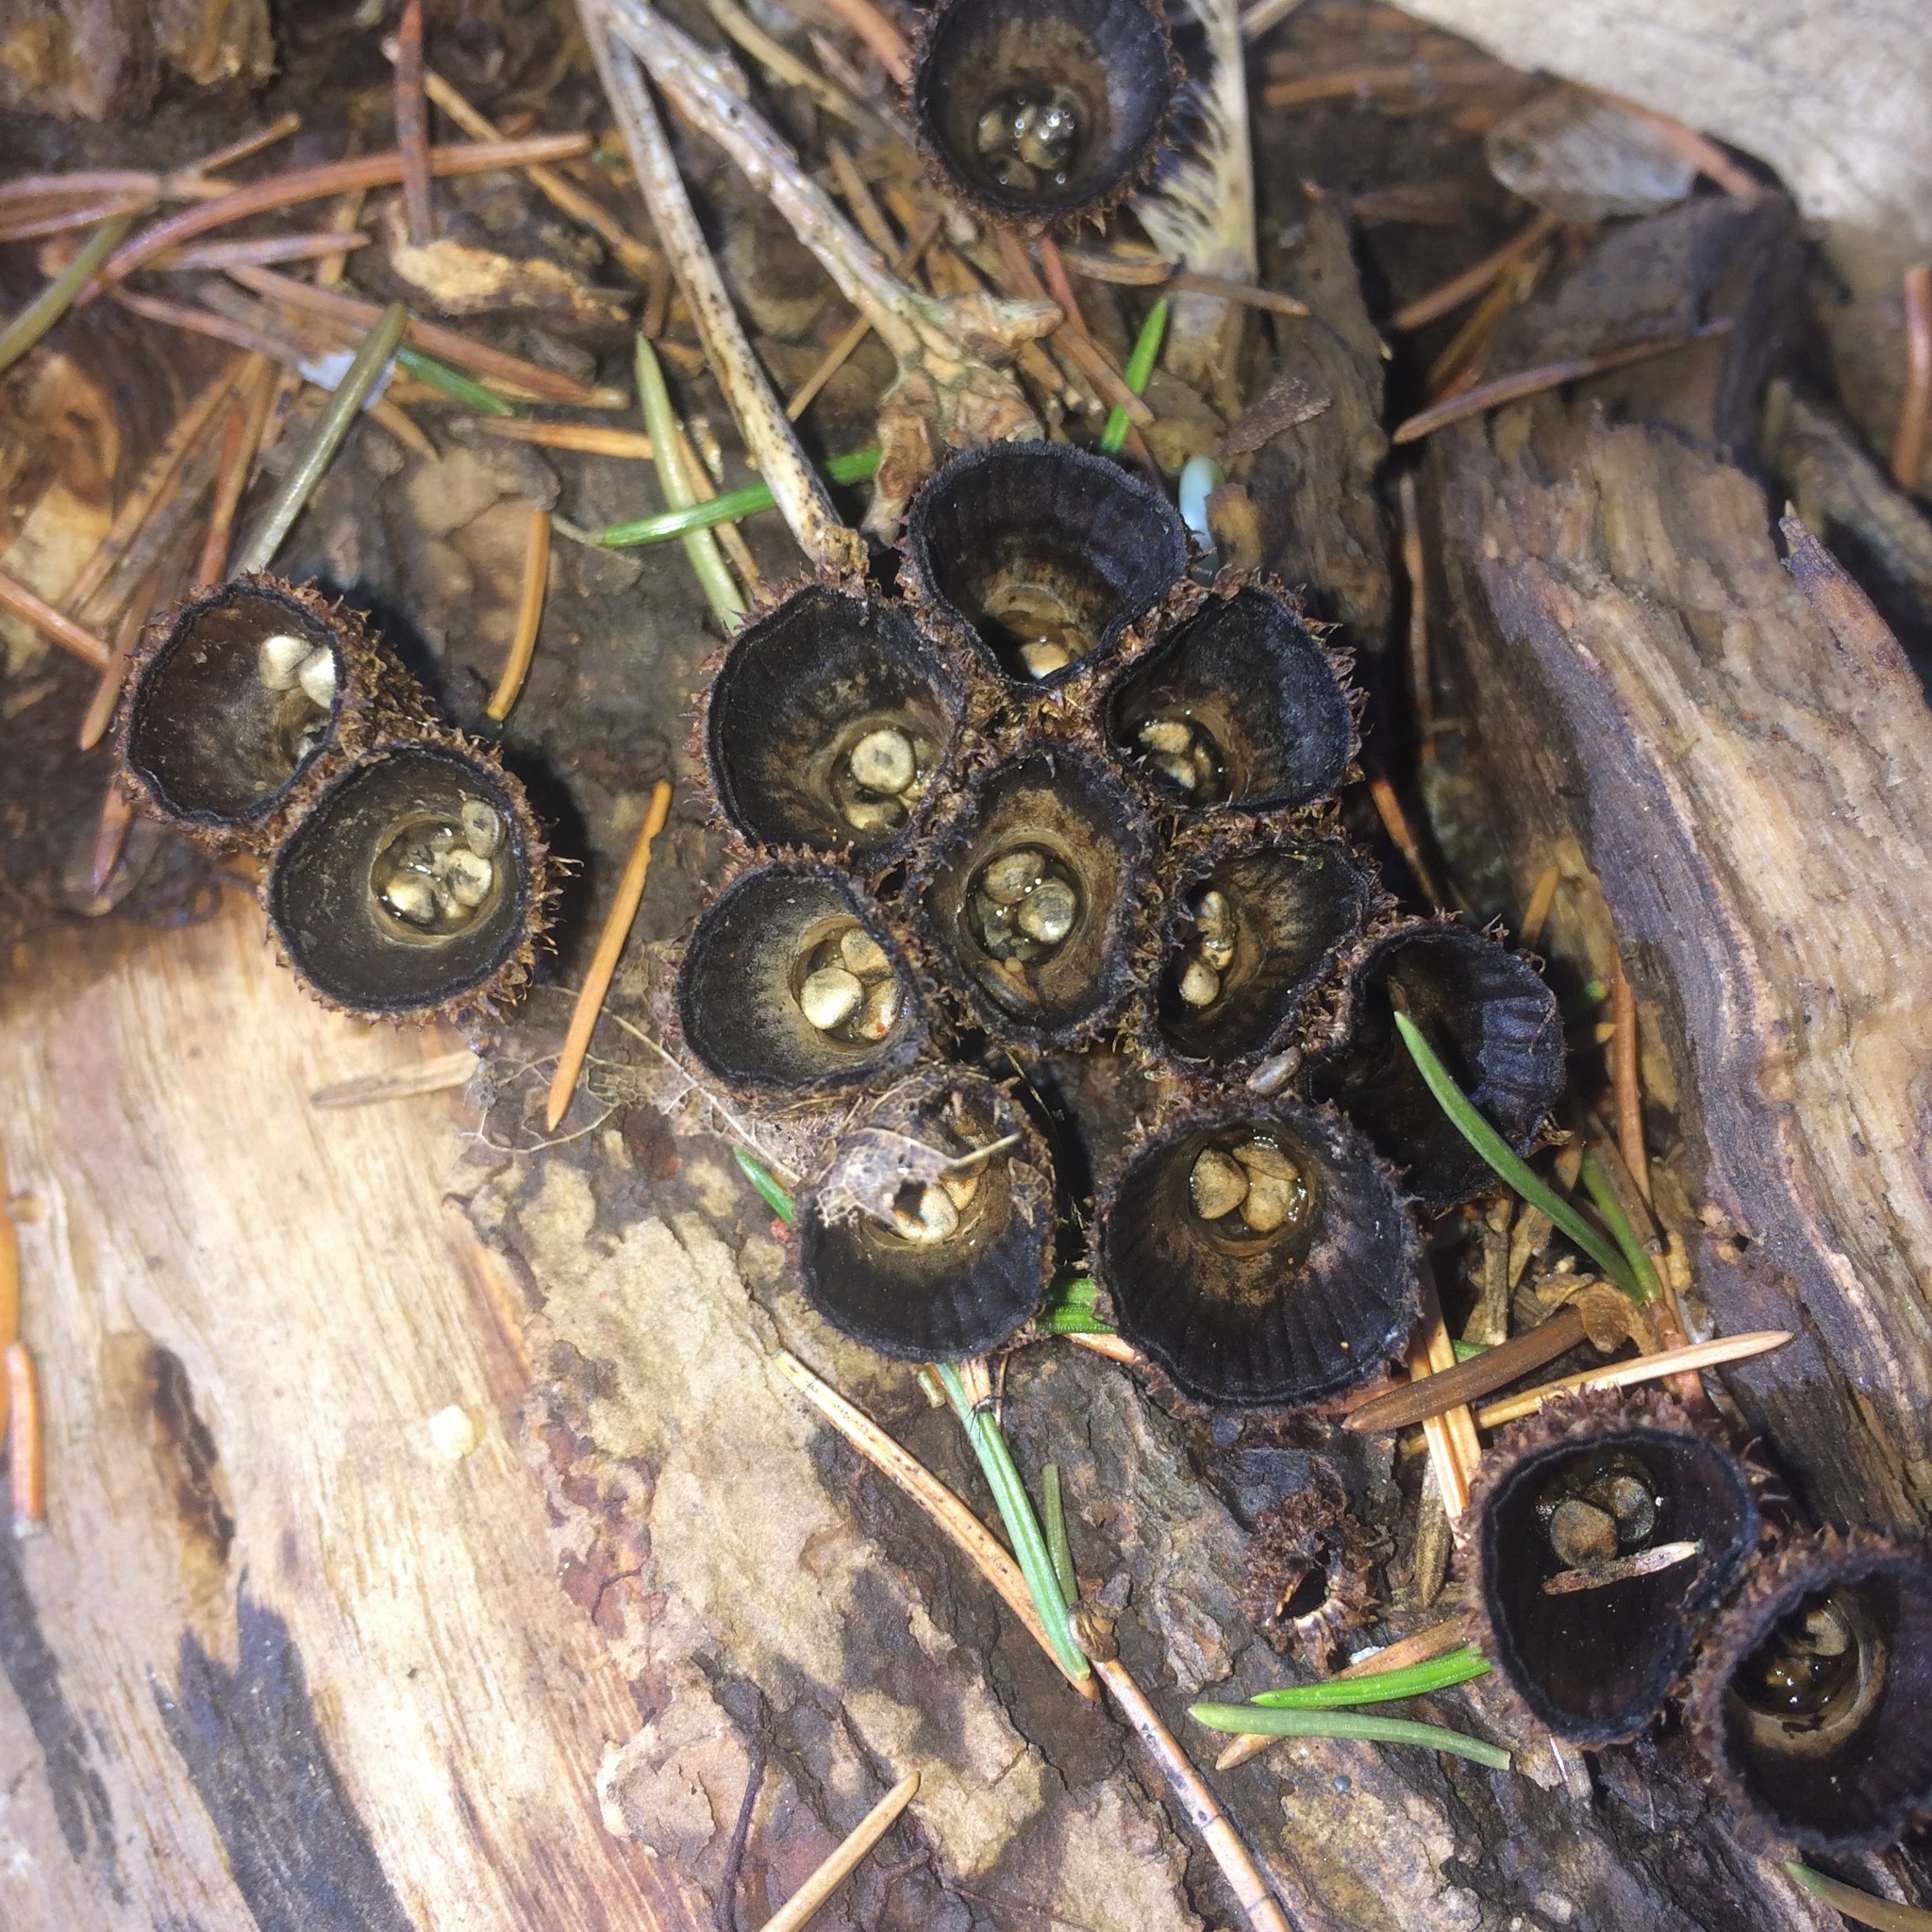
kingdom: Fungi
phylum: Basidiomycota
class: Agaricomycetes
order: Agaricales
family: Agaricaceae
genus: Cyathus
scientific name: Cyathus striatus
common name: Fluted bird's nest
